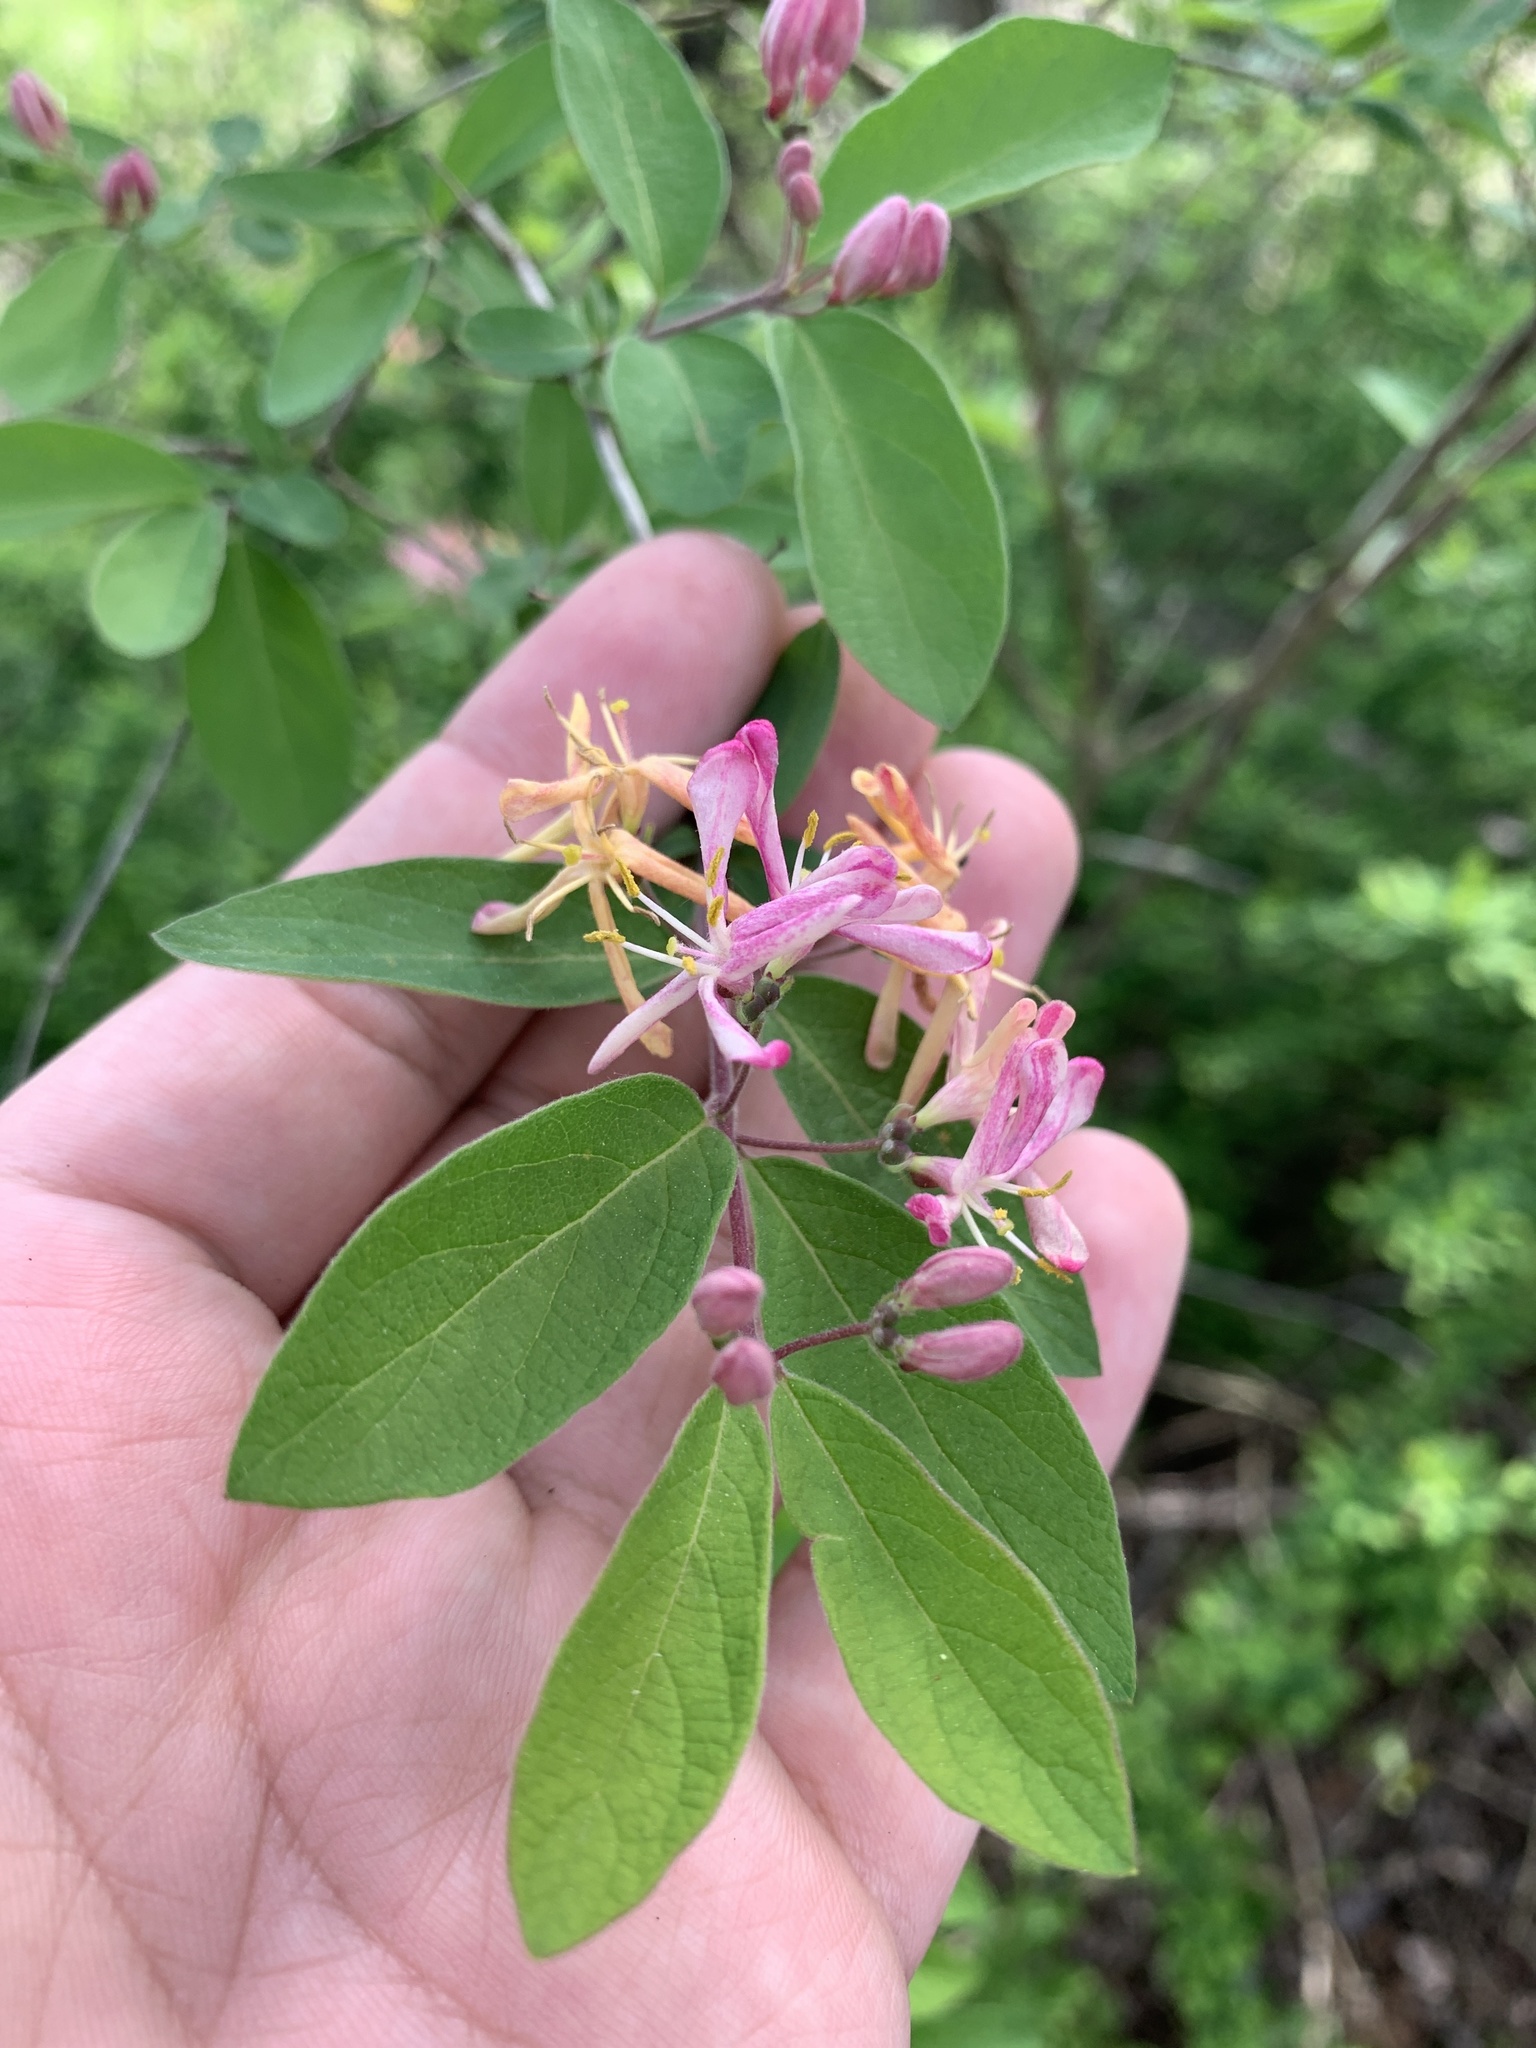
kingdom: Plantae
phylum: Tracheophyta
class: Magnoliopsida
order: Dipsacales
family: Caprifoliaceae
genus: Lonicera
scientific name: Lonicera bella
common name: Bell's honeysuckle
